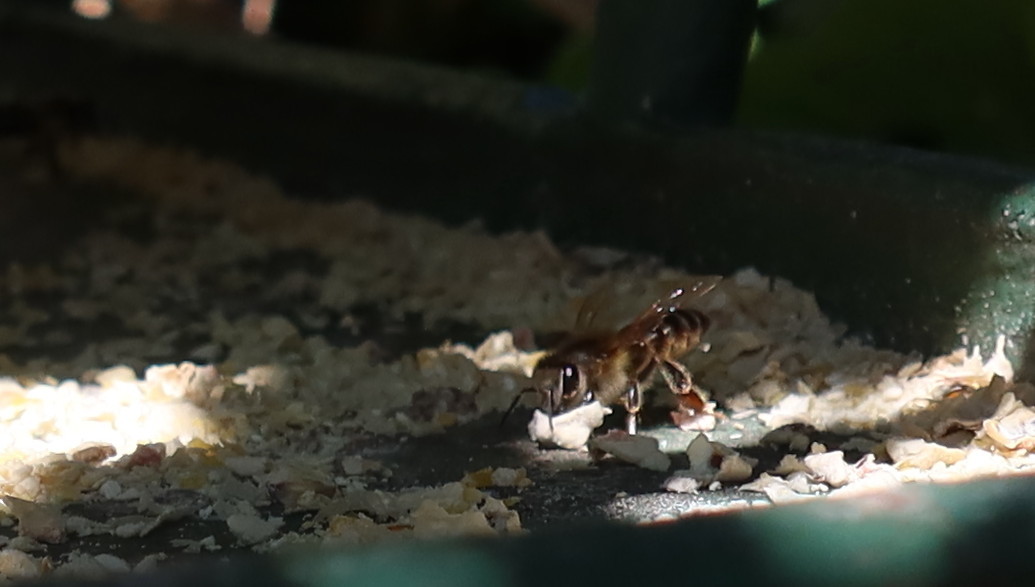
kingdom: Animalia
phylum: Arthropoda
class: Insecta
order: Hymenoptera
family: Apidae
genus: Apis
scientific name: Apis mellifera
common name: Honey bee
